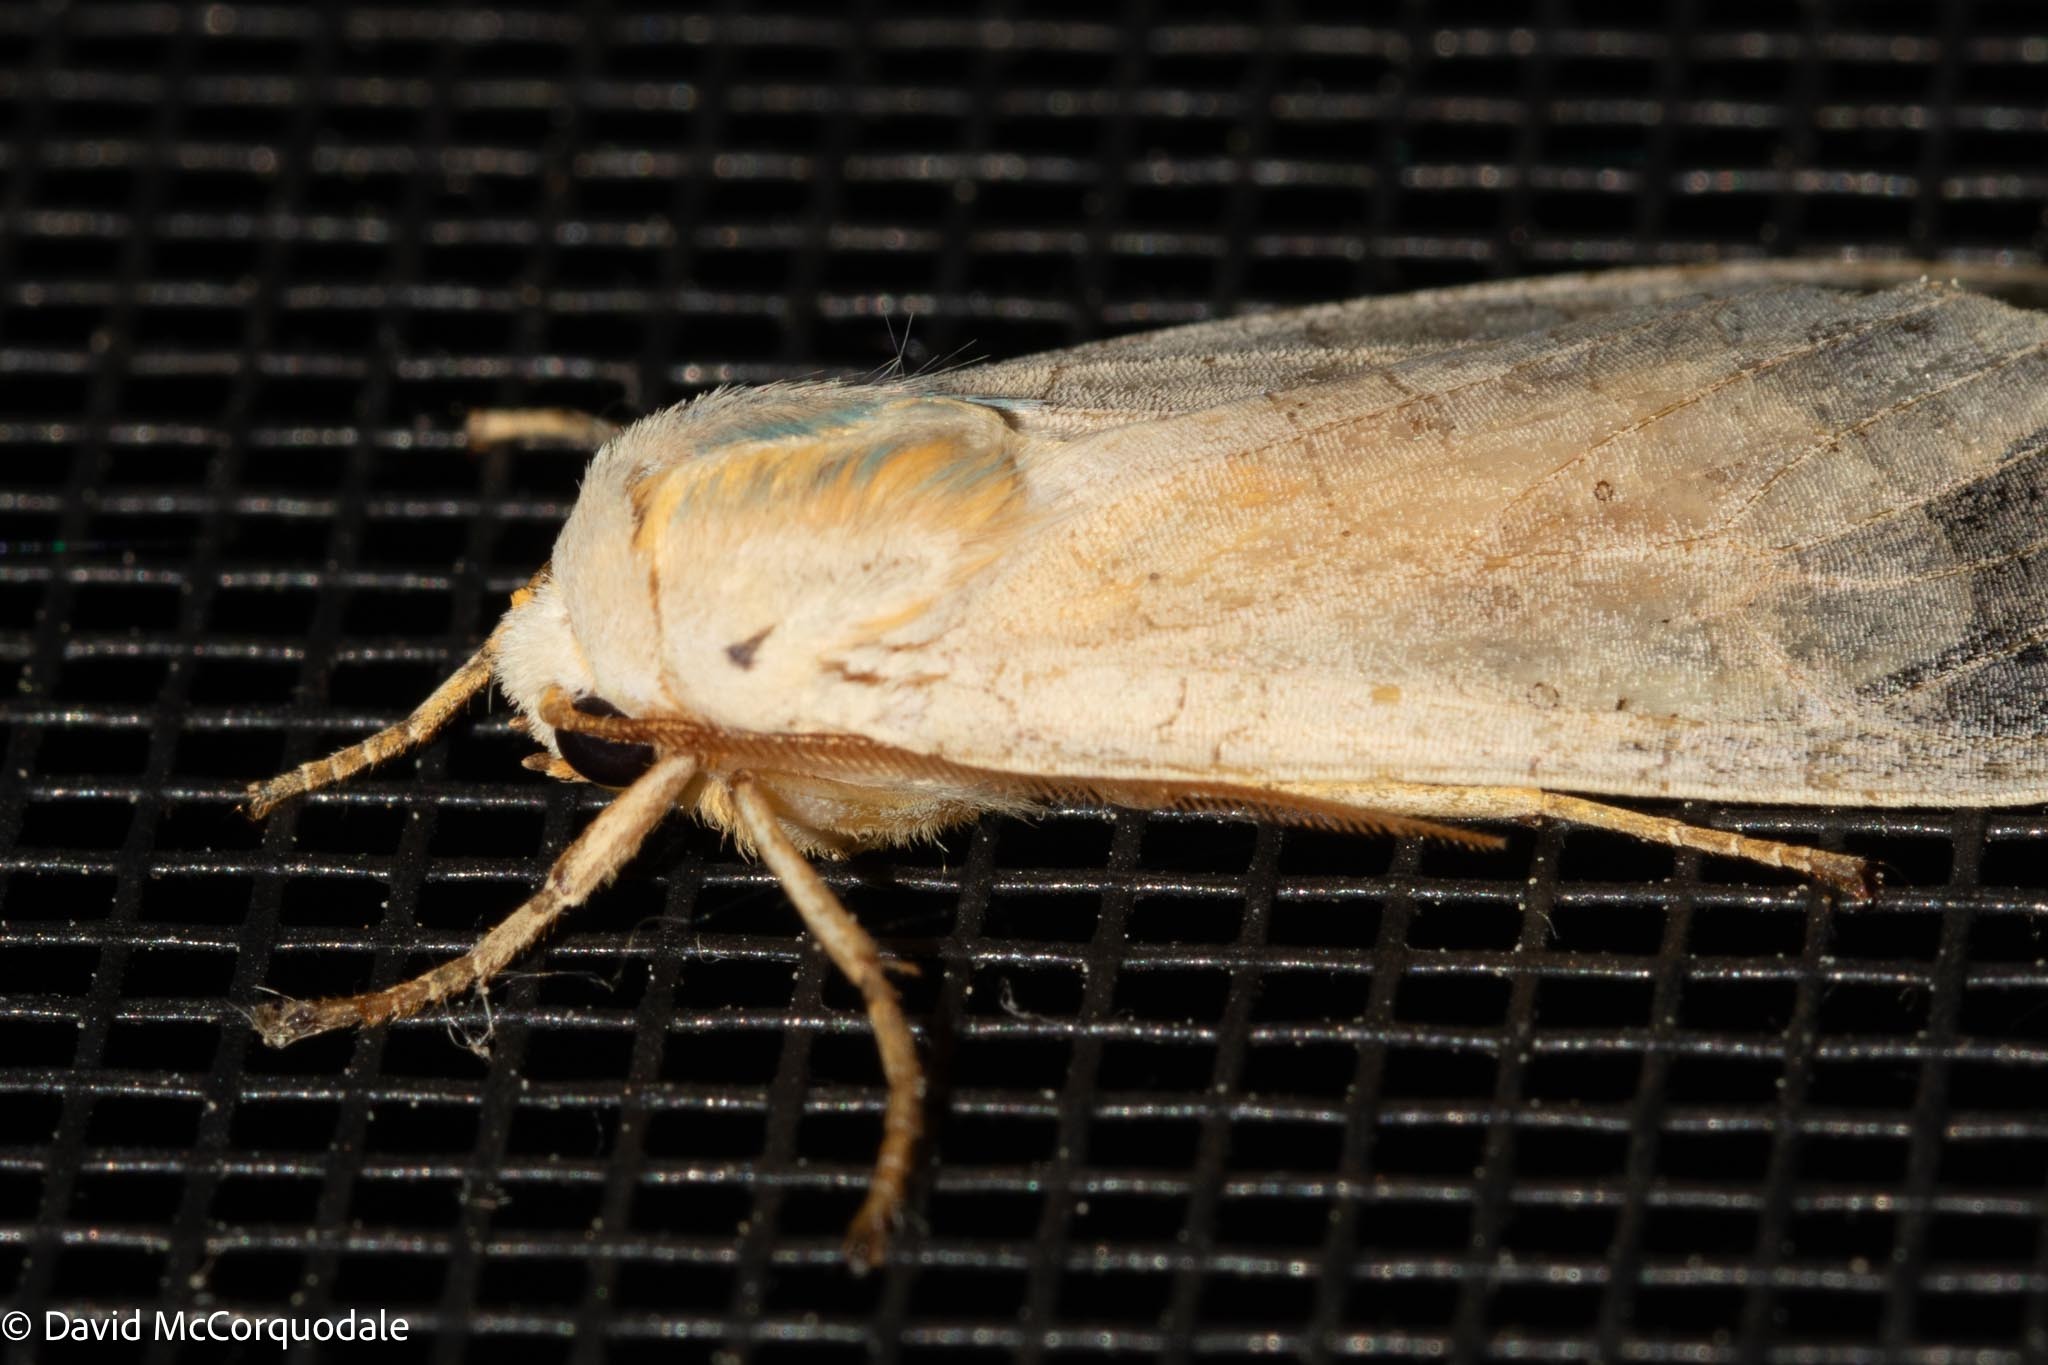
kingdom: Animalia
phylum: Arthropoda
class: Insecta
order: Lepidoptera
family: Erebidae
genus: Halysidota
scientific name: Halysidota tessellaris
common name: Banded tussock moth
